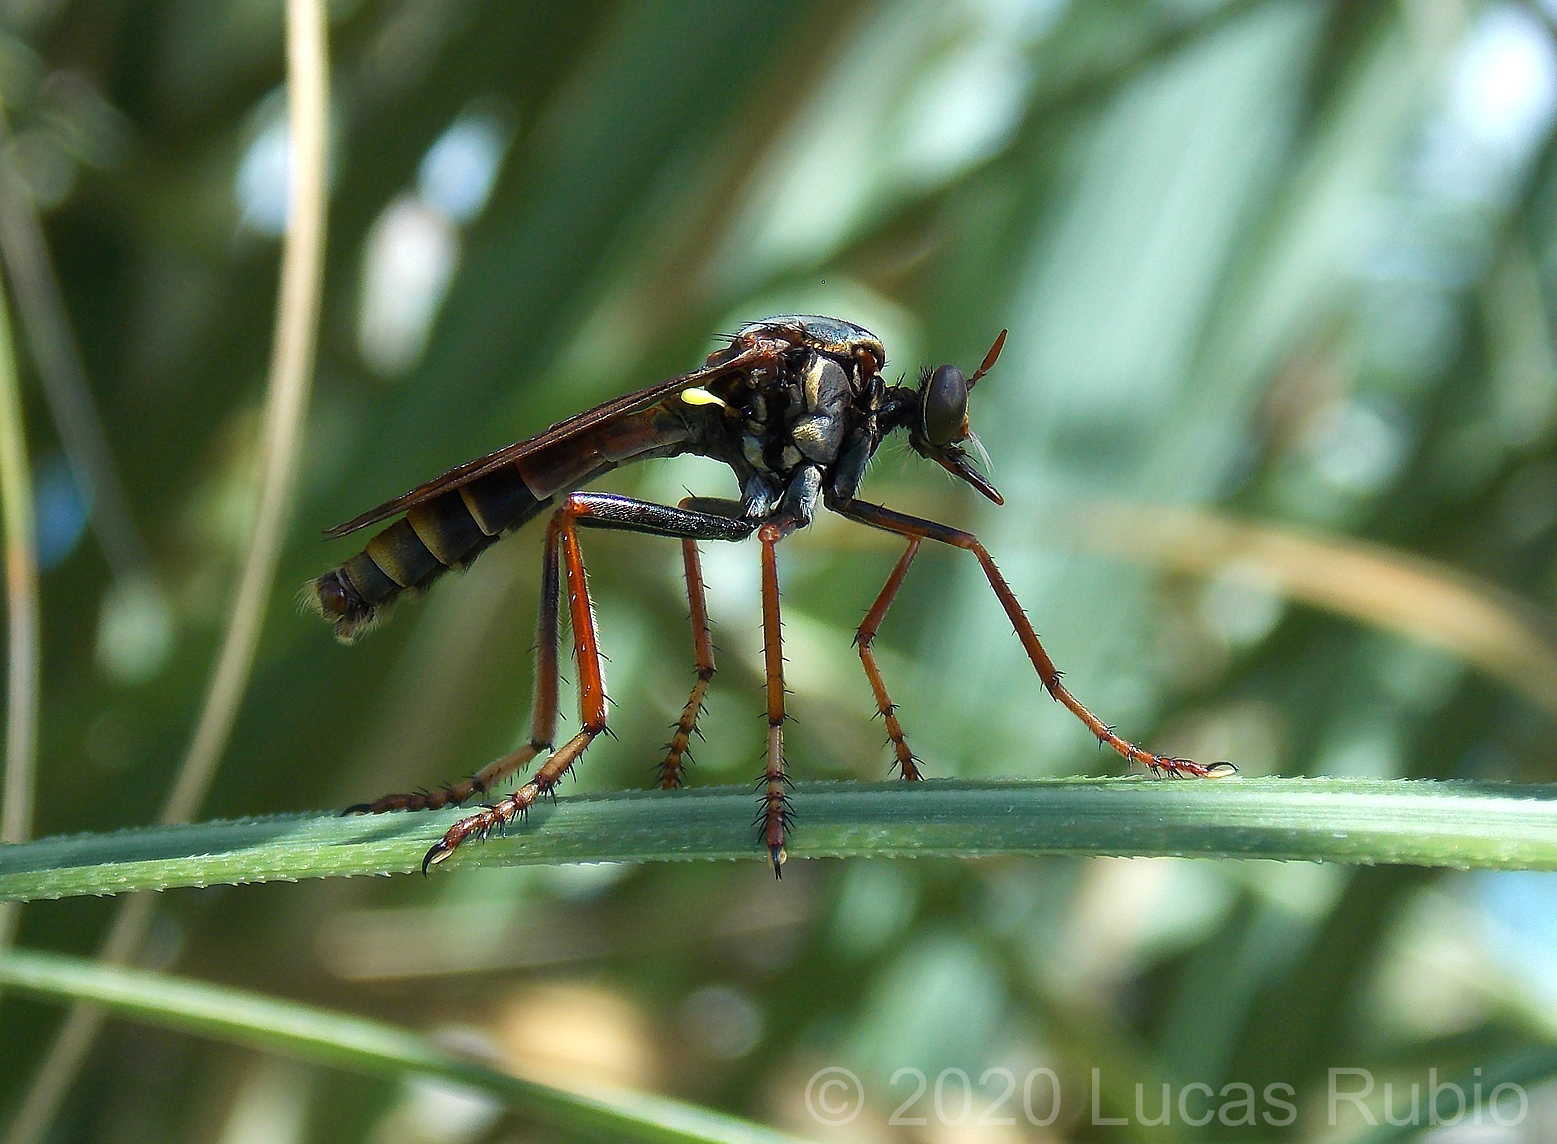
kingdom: Animalia
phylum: Arthropoda
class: Insecta
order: Diptera
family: Asilidae
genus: Blepharepium
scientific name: Blepharepium cajennense
